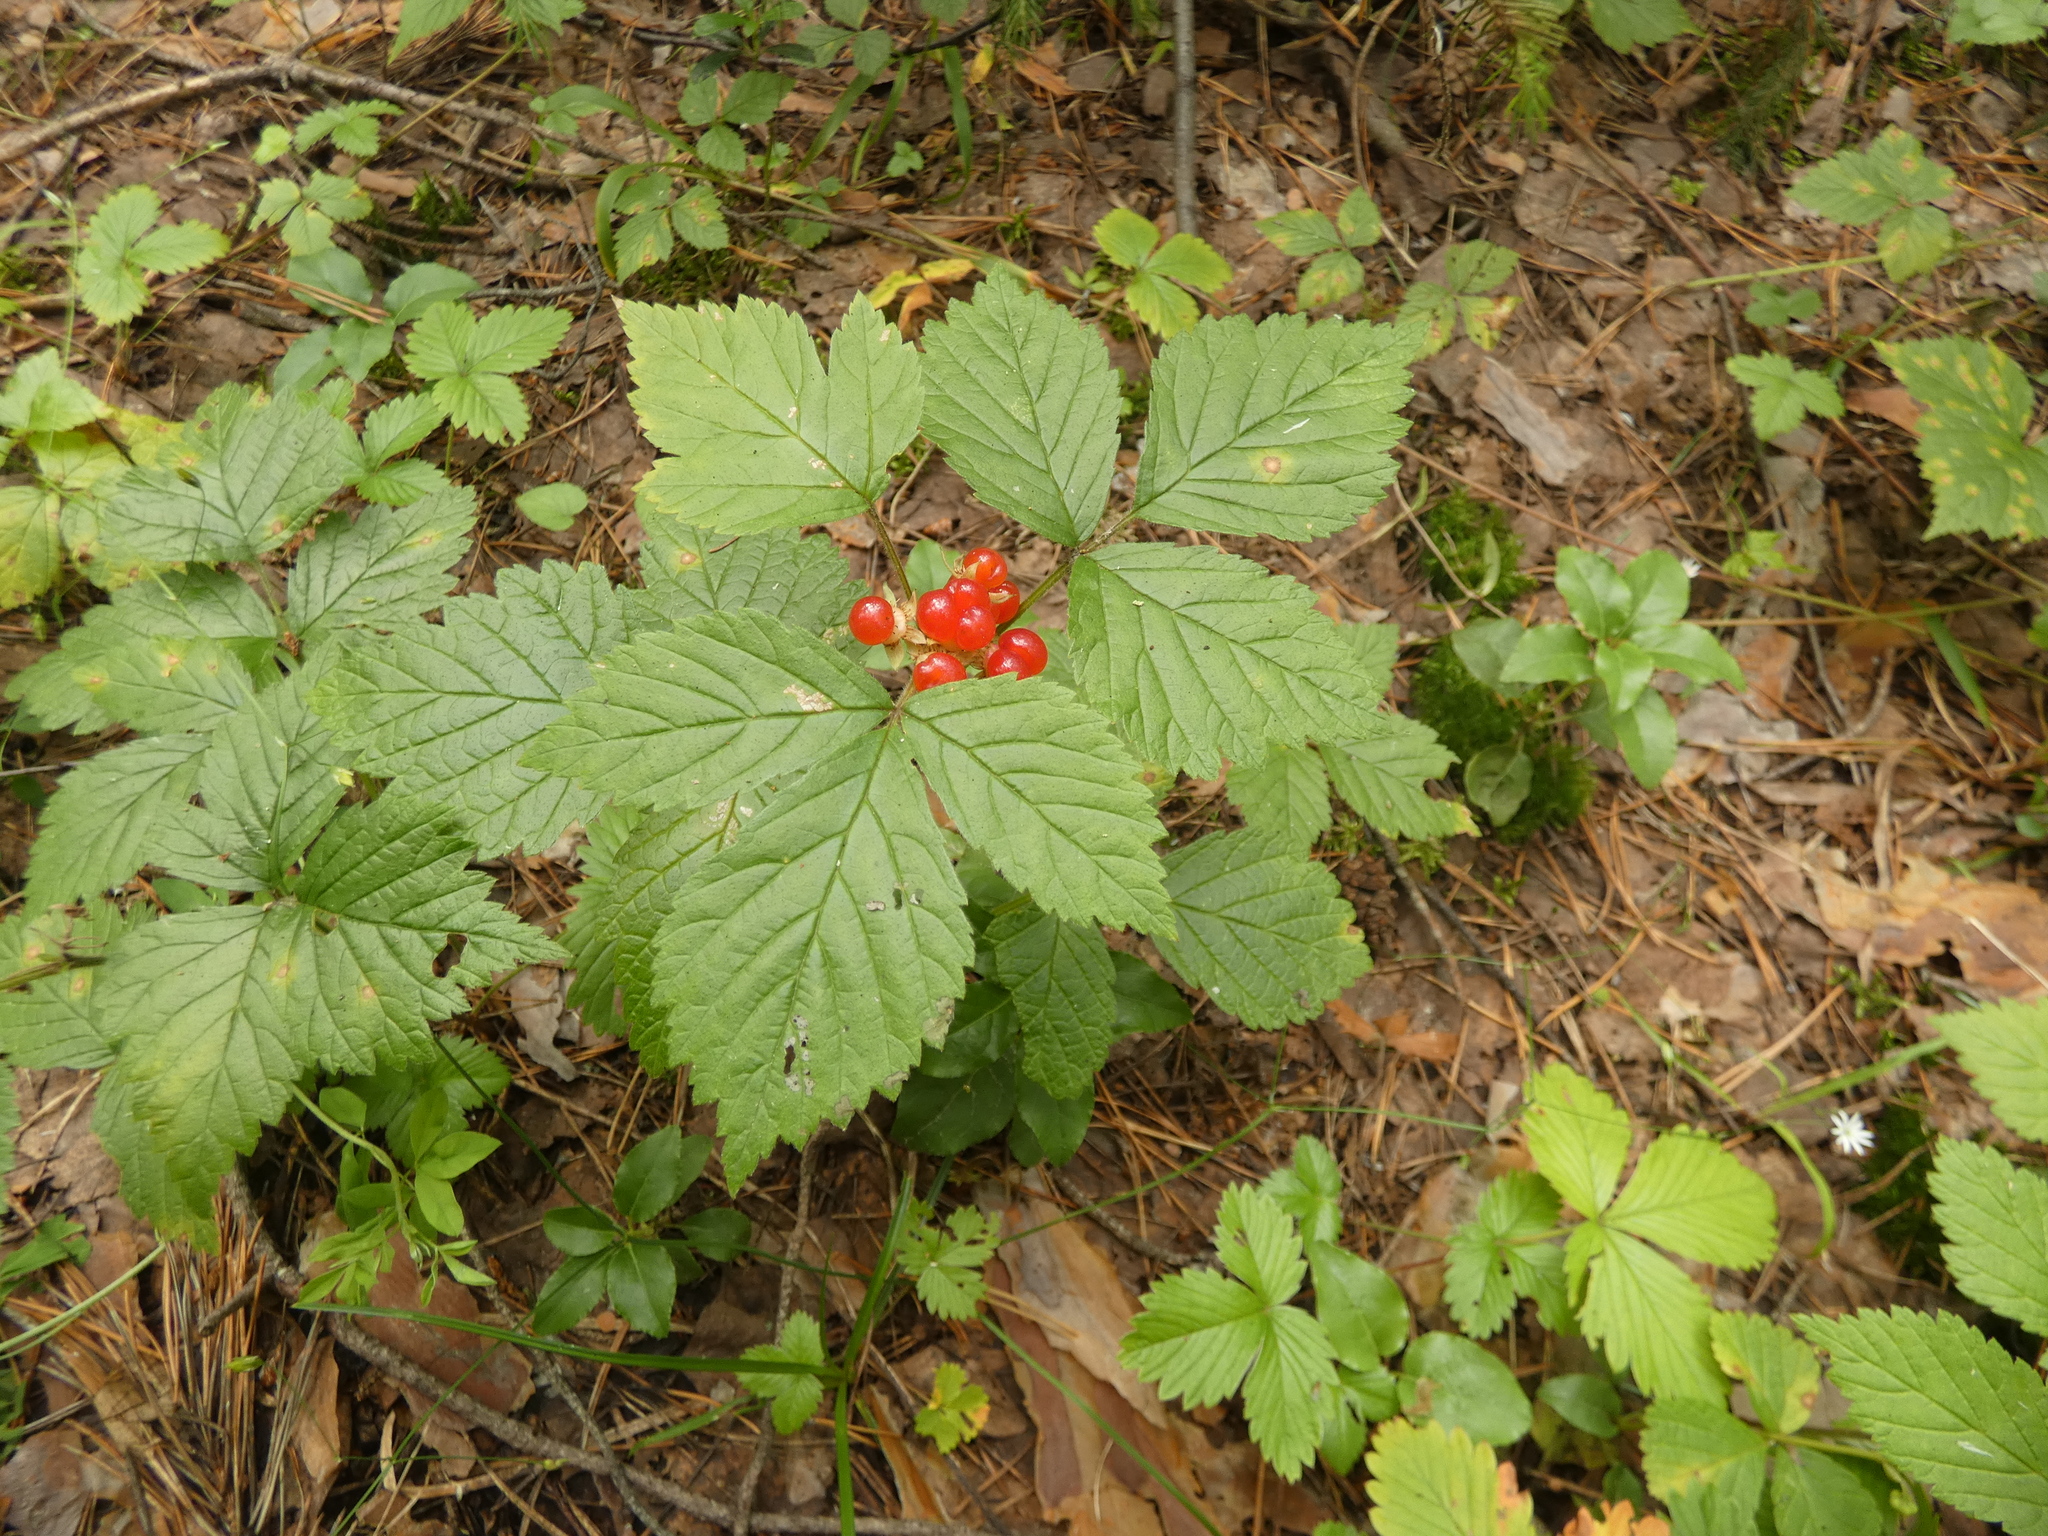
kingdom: Plantae
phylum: Tracheophyta
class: Magnoliopsida
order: Rosales
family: Rosaceae
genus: Rubus
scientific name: Rubus saxatilis
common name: Stone bramble
